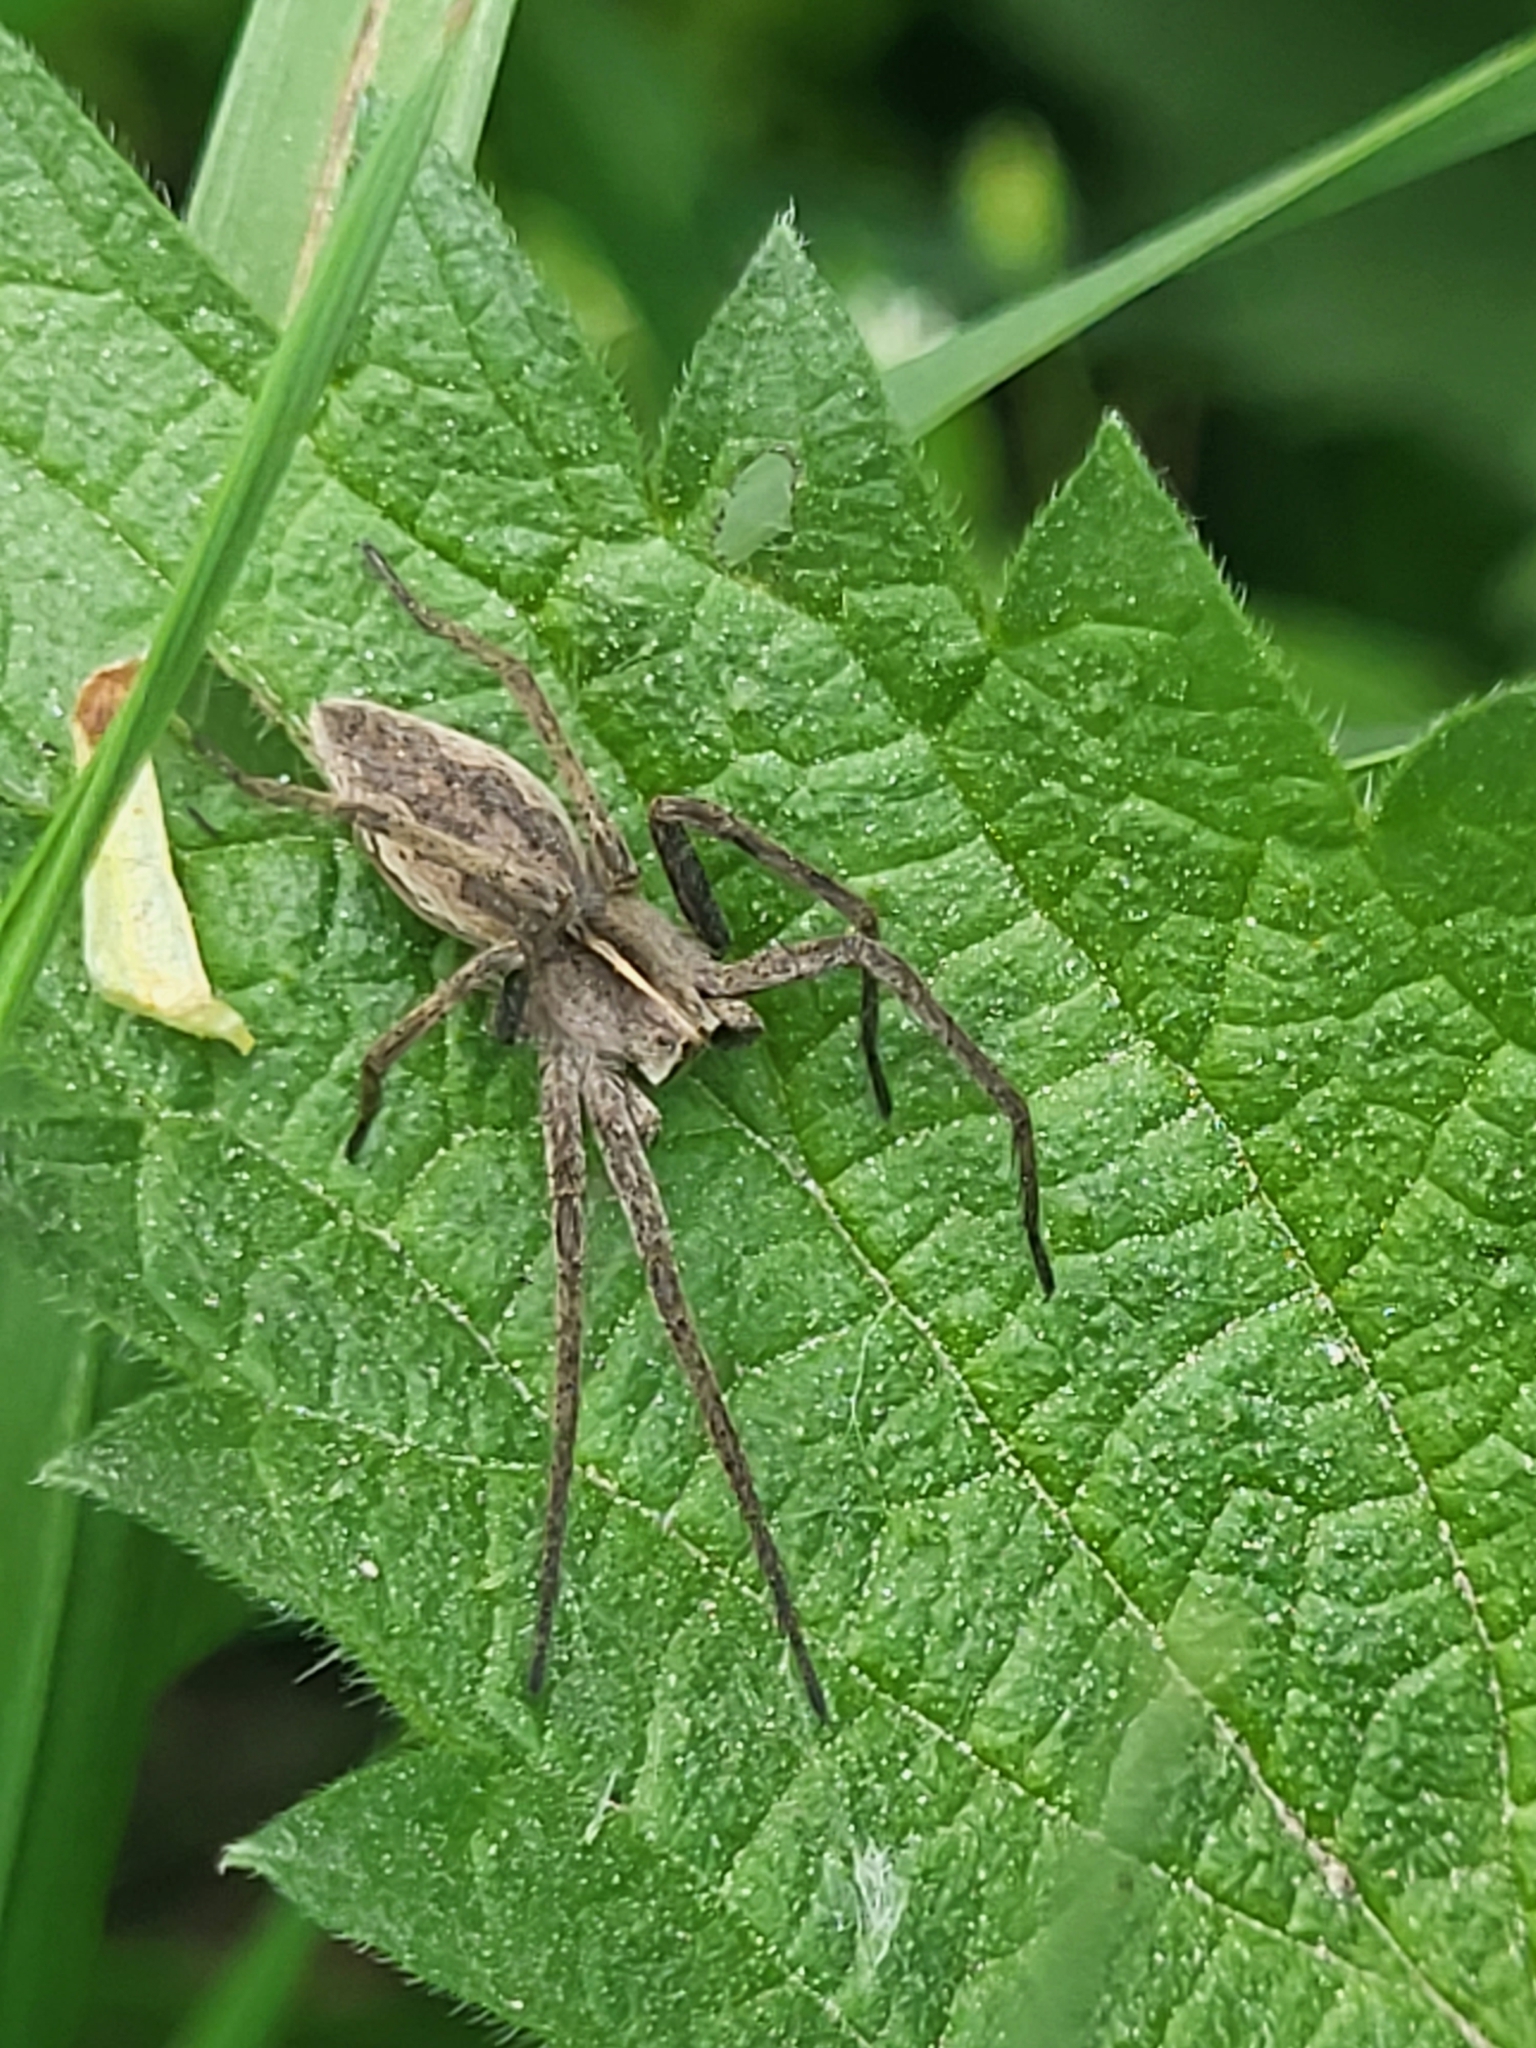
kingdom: Animalia
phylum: Arthropoda
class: Arachnida
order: Araneae
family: Pisauridae
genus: Pisaura
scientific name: Pisaura mirabilis
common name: Tent spider
